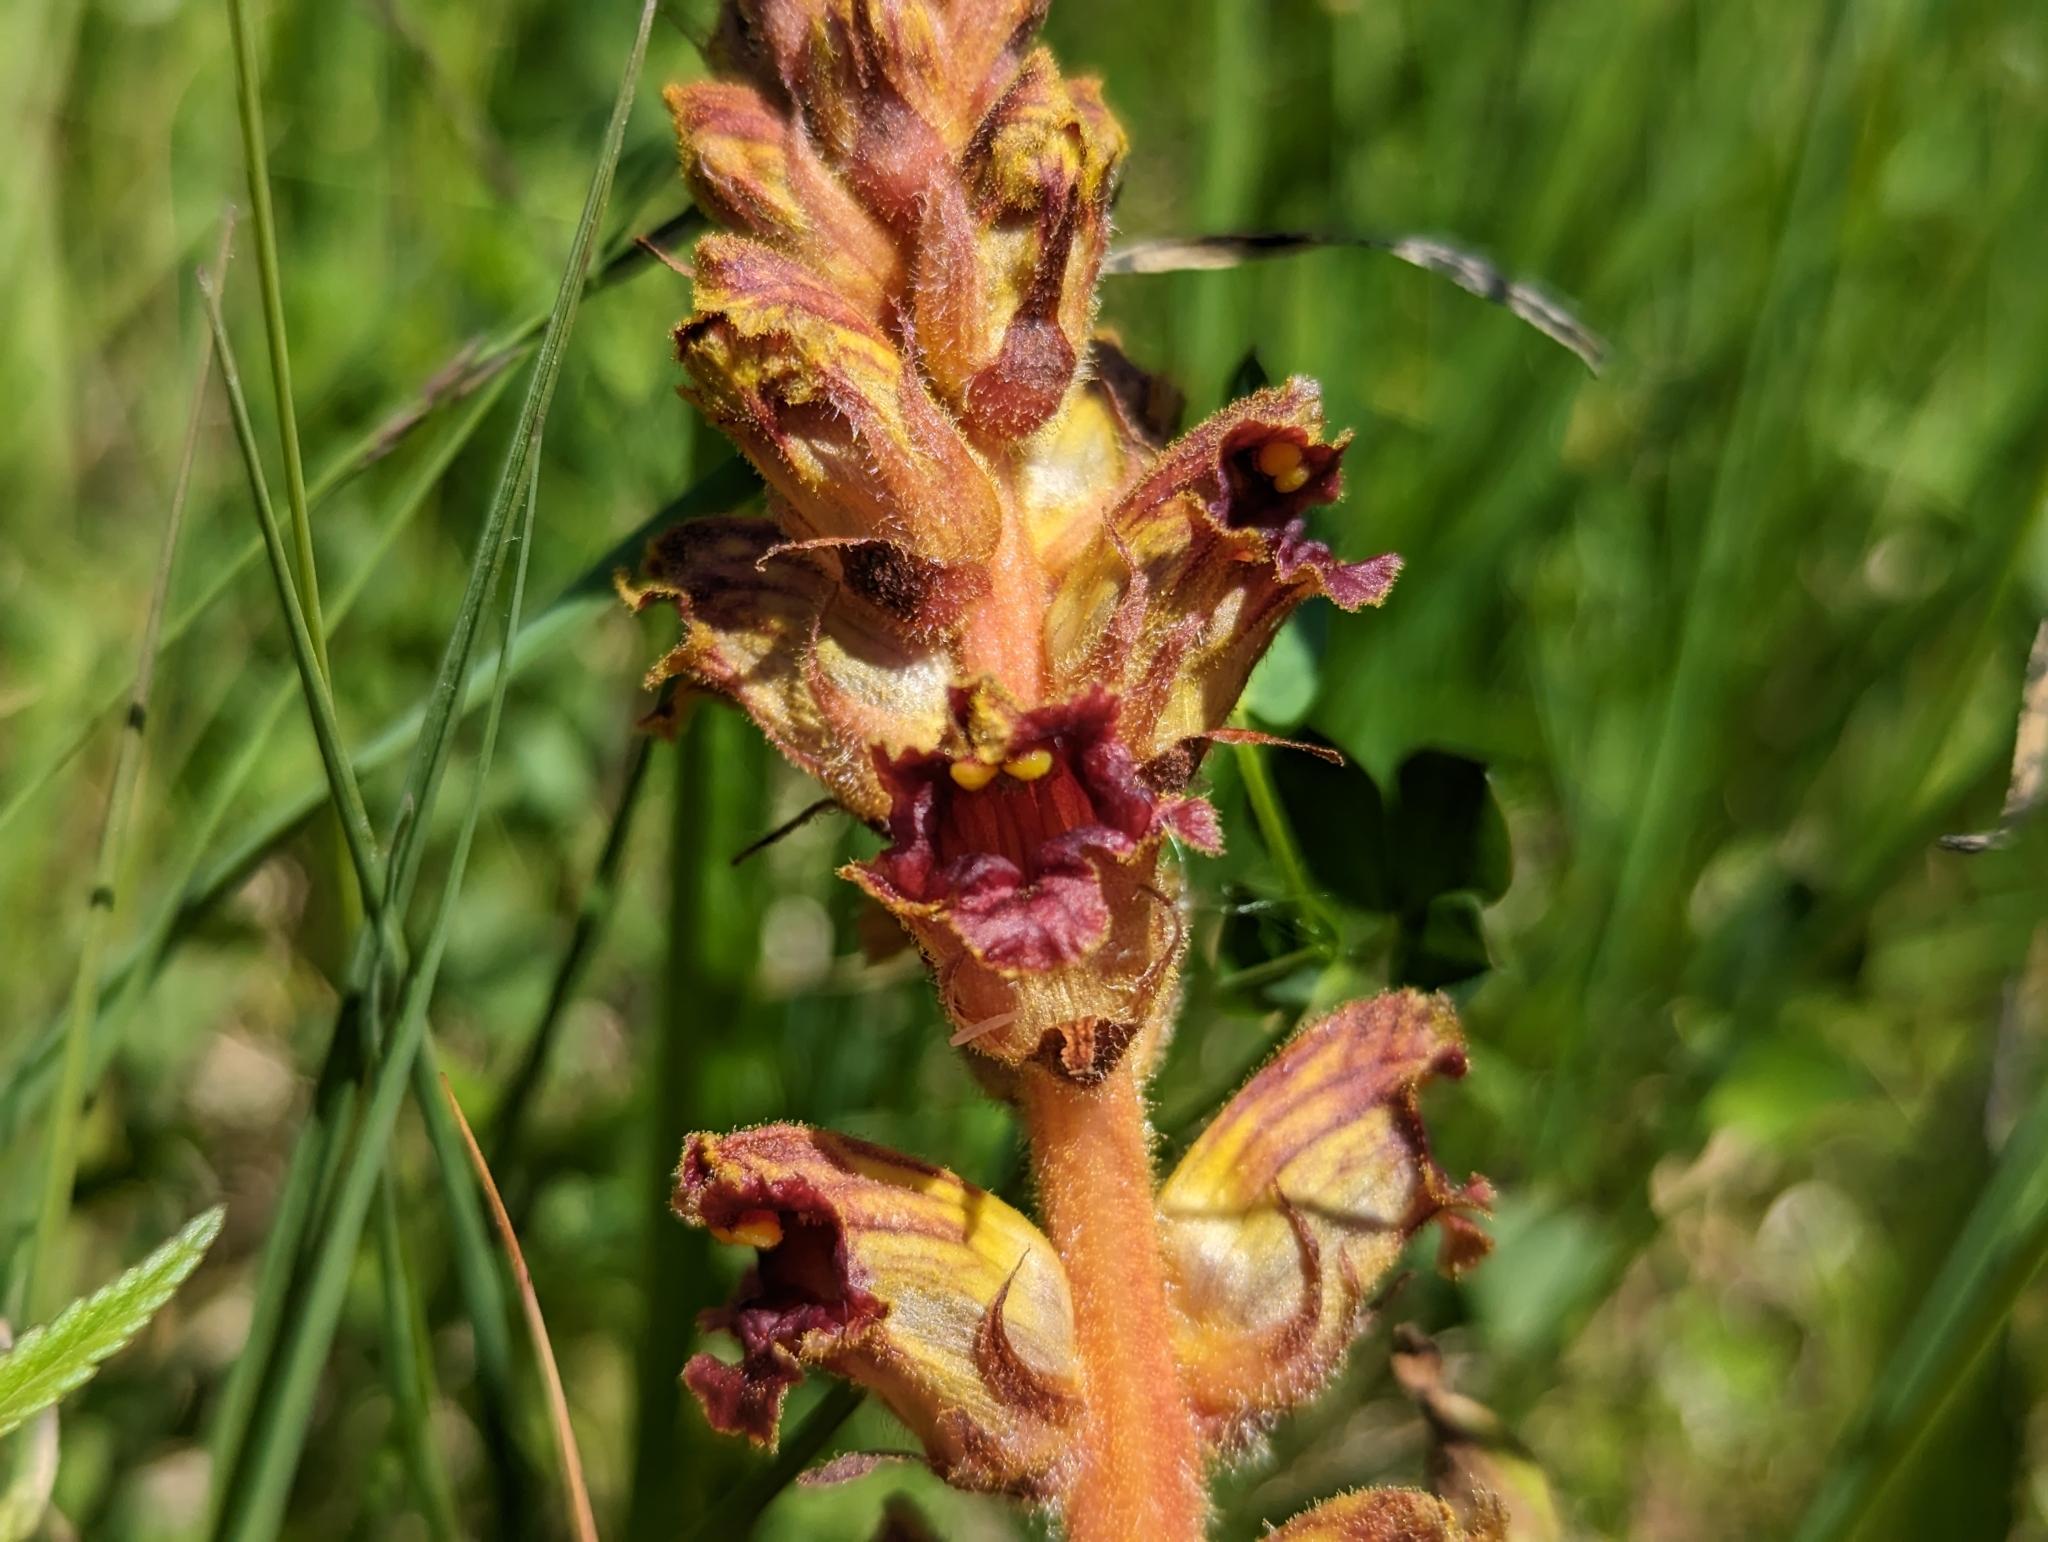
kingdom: Plantae
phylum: Tracheophyta
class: Magnoliopsida
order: Lamiales
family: Orobanchaceae
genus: Orobanche
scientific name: Orobanche gracilis
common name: Slender broomrape
